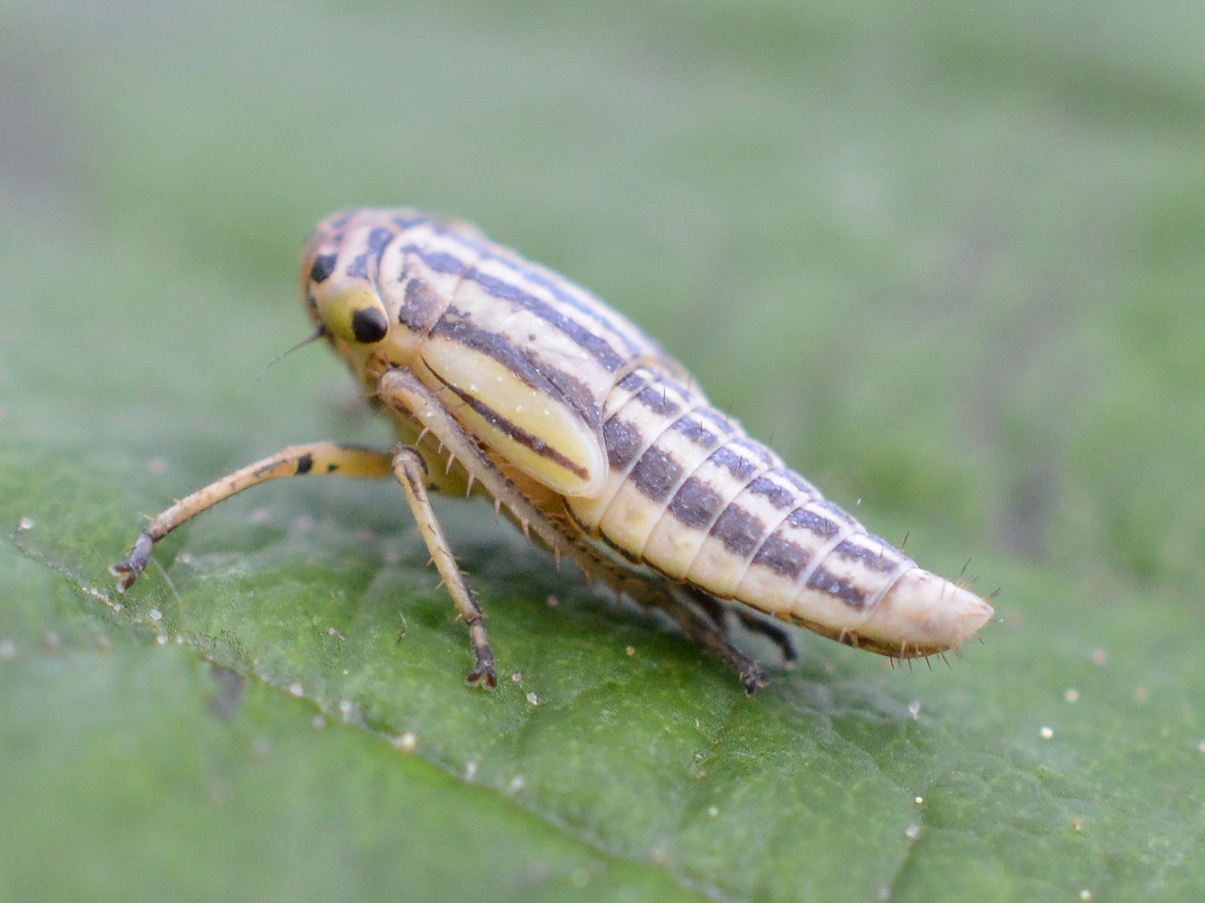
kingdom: Animalia
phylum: Arthropoda
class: Insecta
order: Hemiptera
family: Cicadellidae
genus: Cicadella
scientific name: Cicadella viridis
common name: Leafhopper
